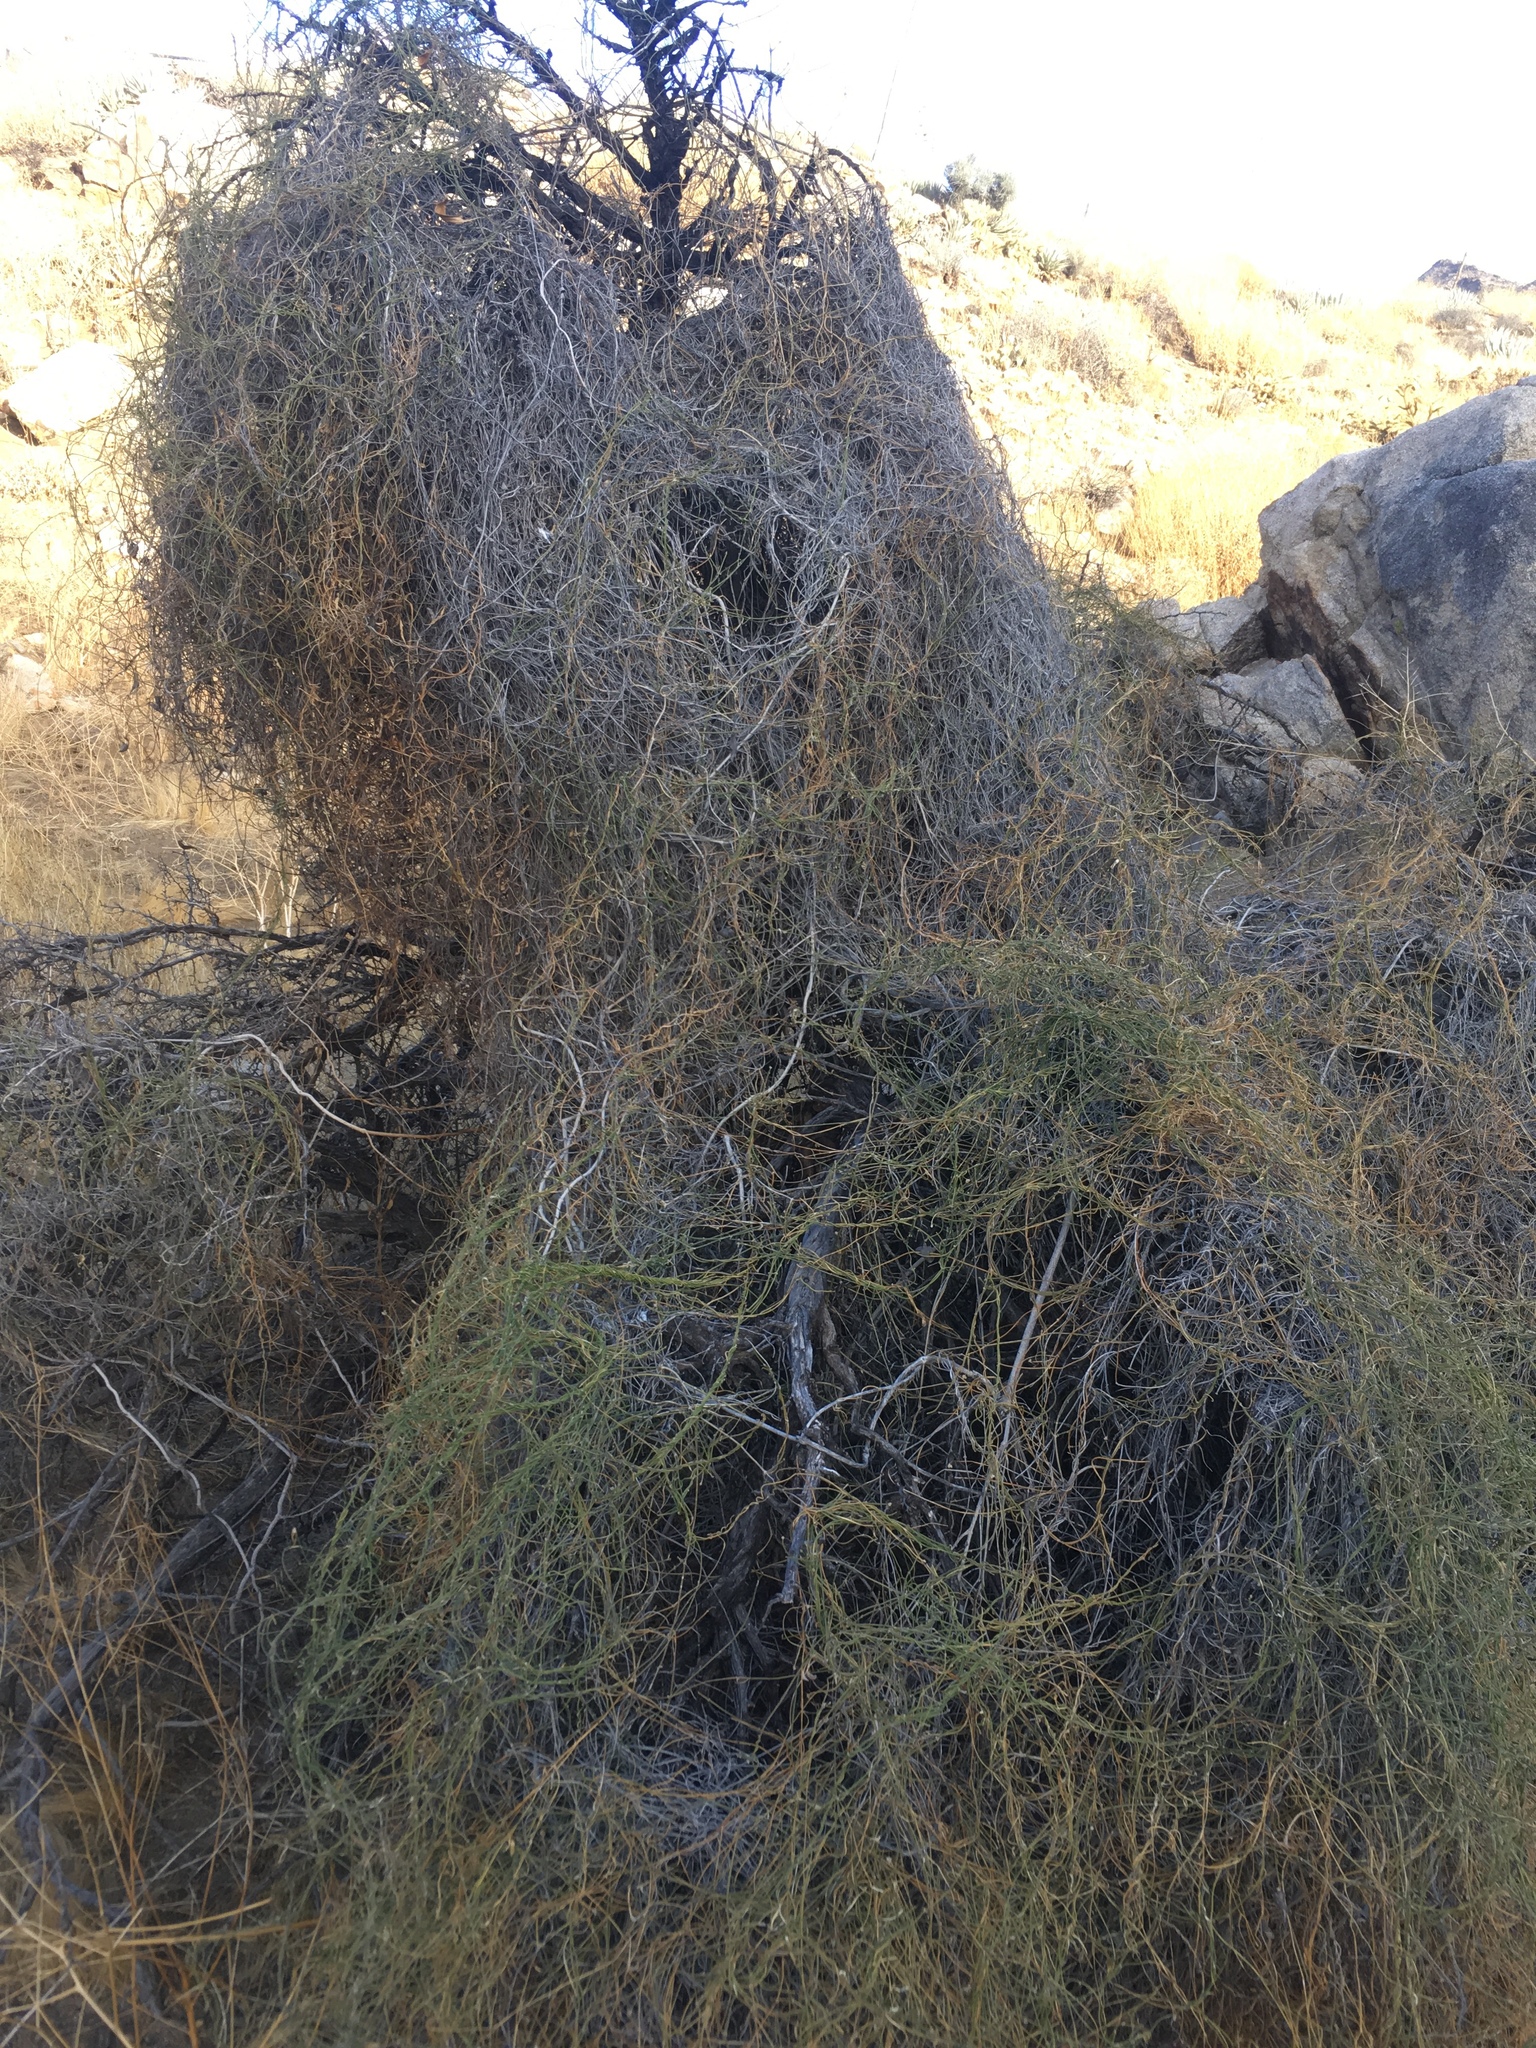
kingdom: Plantae
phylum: Tracheophyta
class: Magnoliopsida
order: Gentianales
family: Apocynaceae
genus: Funastrum
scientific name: Funastrum heterophyllum
